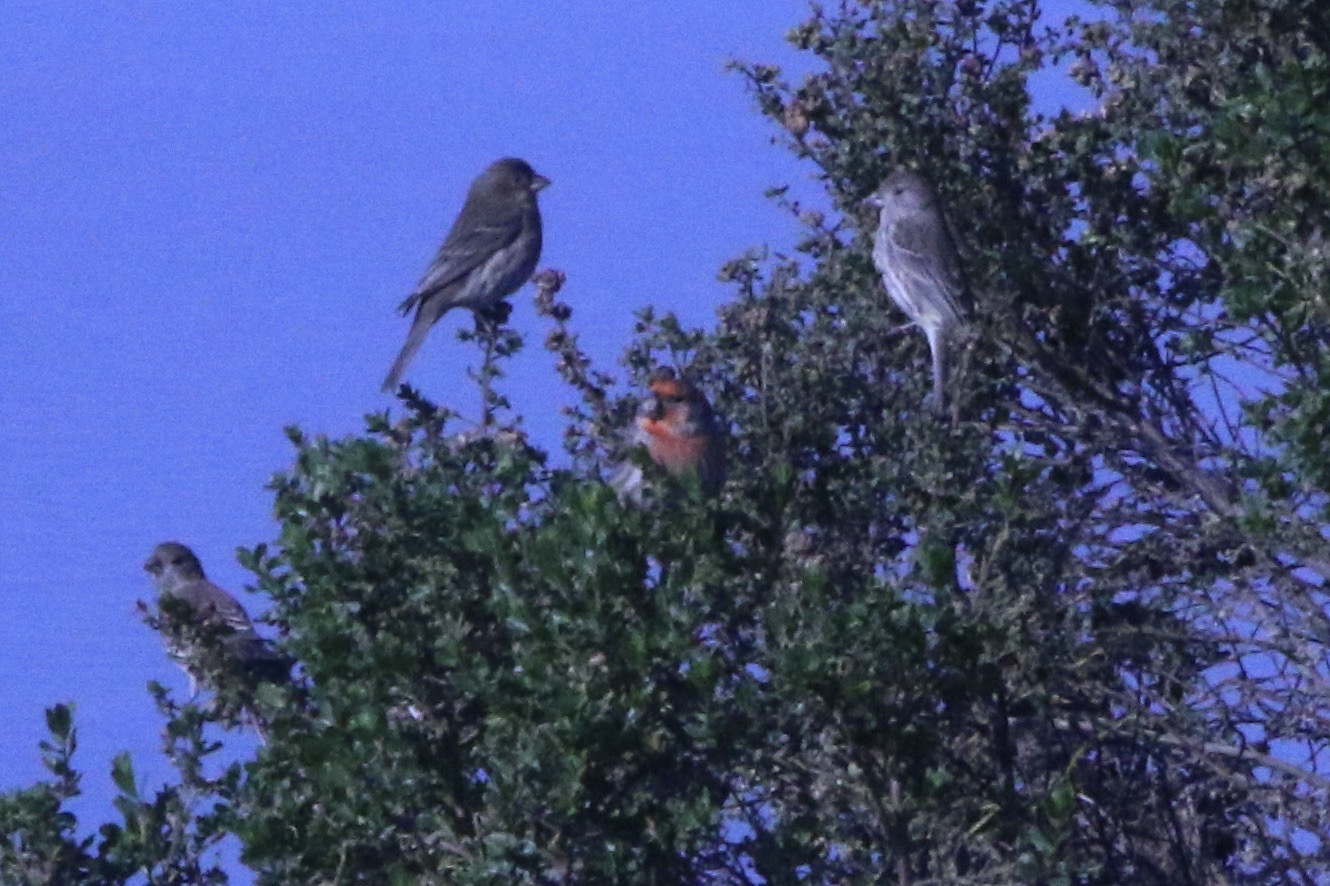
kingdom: Animalia
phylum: Chordata
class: Aves
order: Passeriformes
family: Fringillidae
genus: Haemorhous
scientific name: Haemorhous mexicanus
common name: House finch
